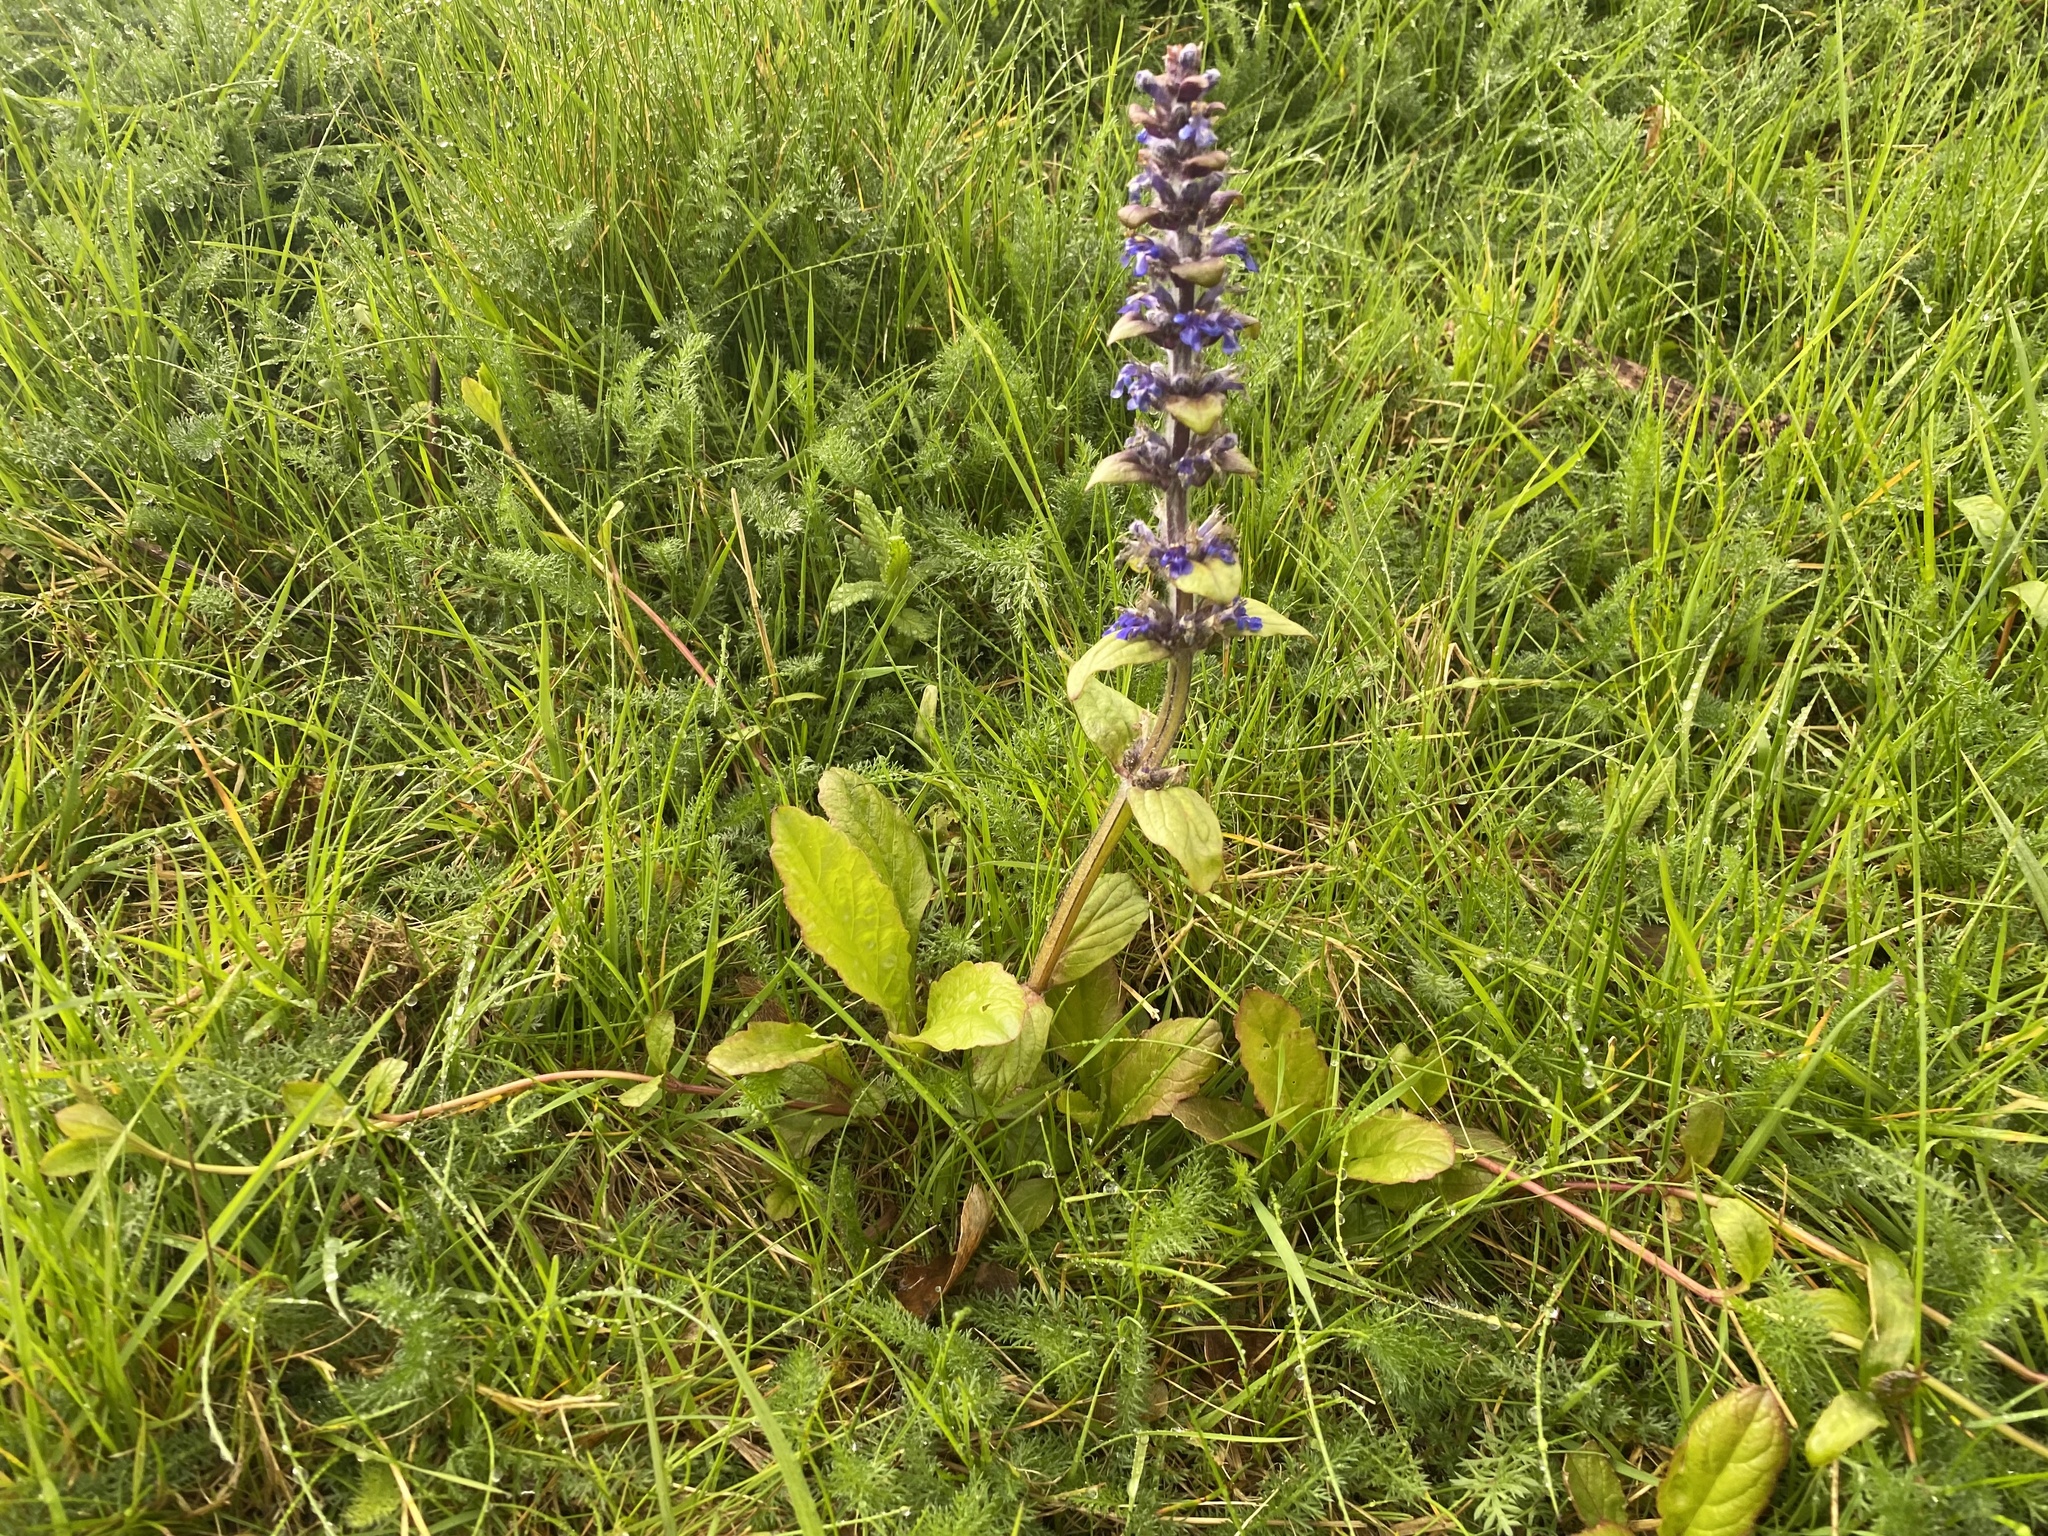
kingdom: Plantae
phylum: Tracheophyta
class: Magnoliopsida
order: Lamiales
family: Lamiaceae
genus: Ajuga
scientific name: Ajuga reptans
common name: Bugle
